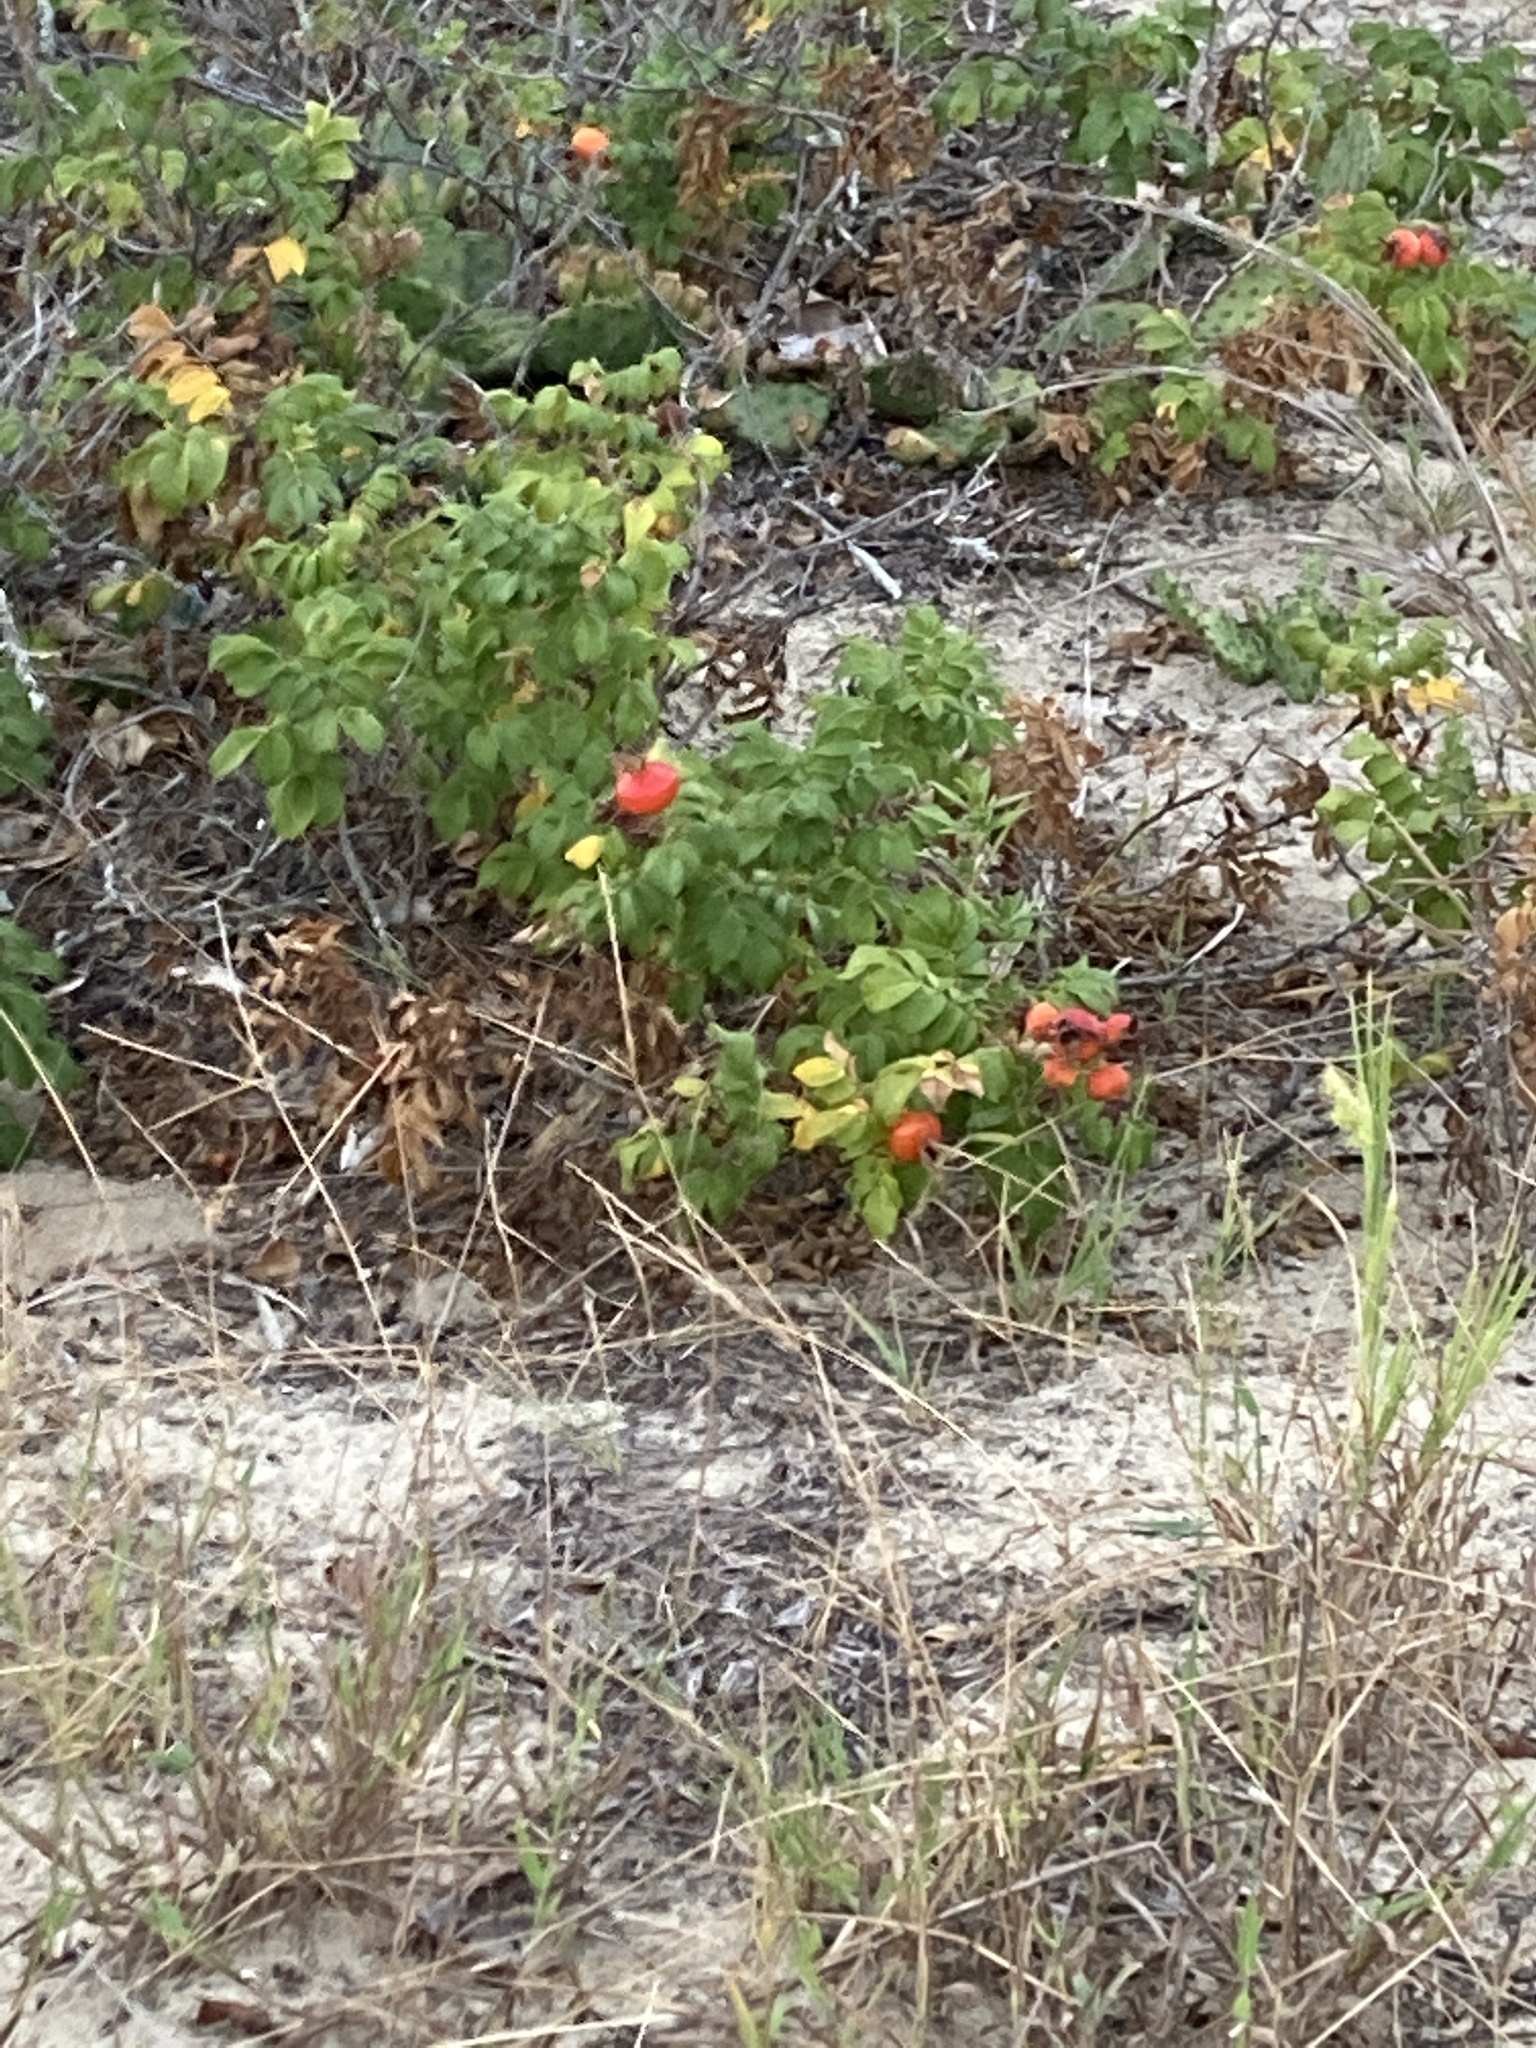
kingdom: Plantae
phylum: Tracheophyta
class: Magnoliopsida
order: Rosales
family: Rosaceae
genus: Rosa
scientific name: Rosa rugosa
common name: Japanese rose
